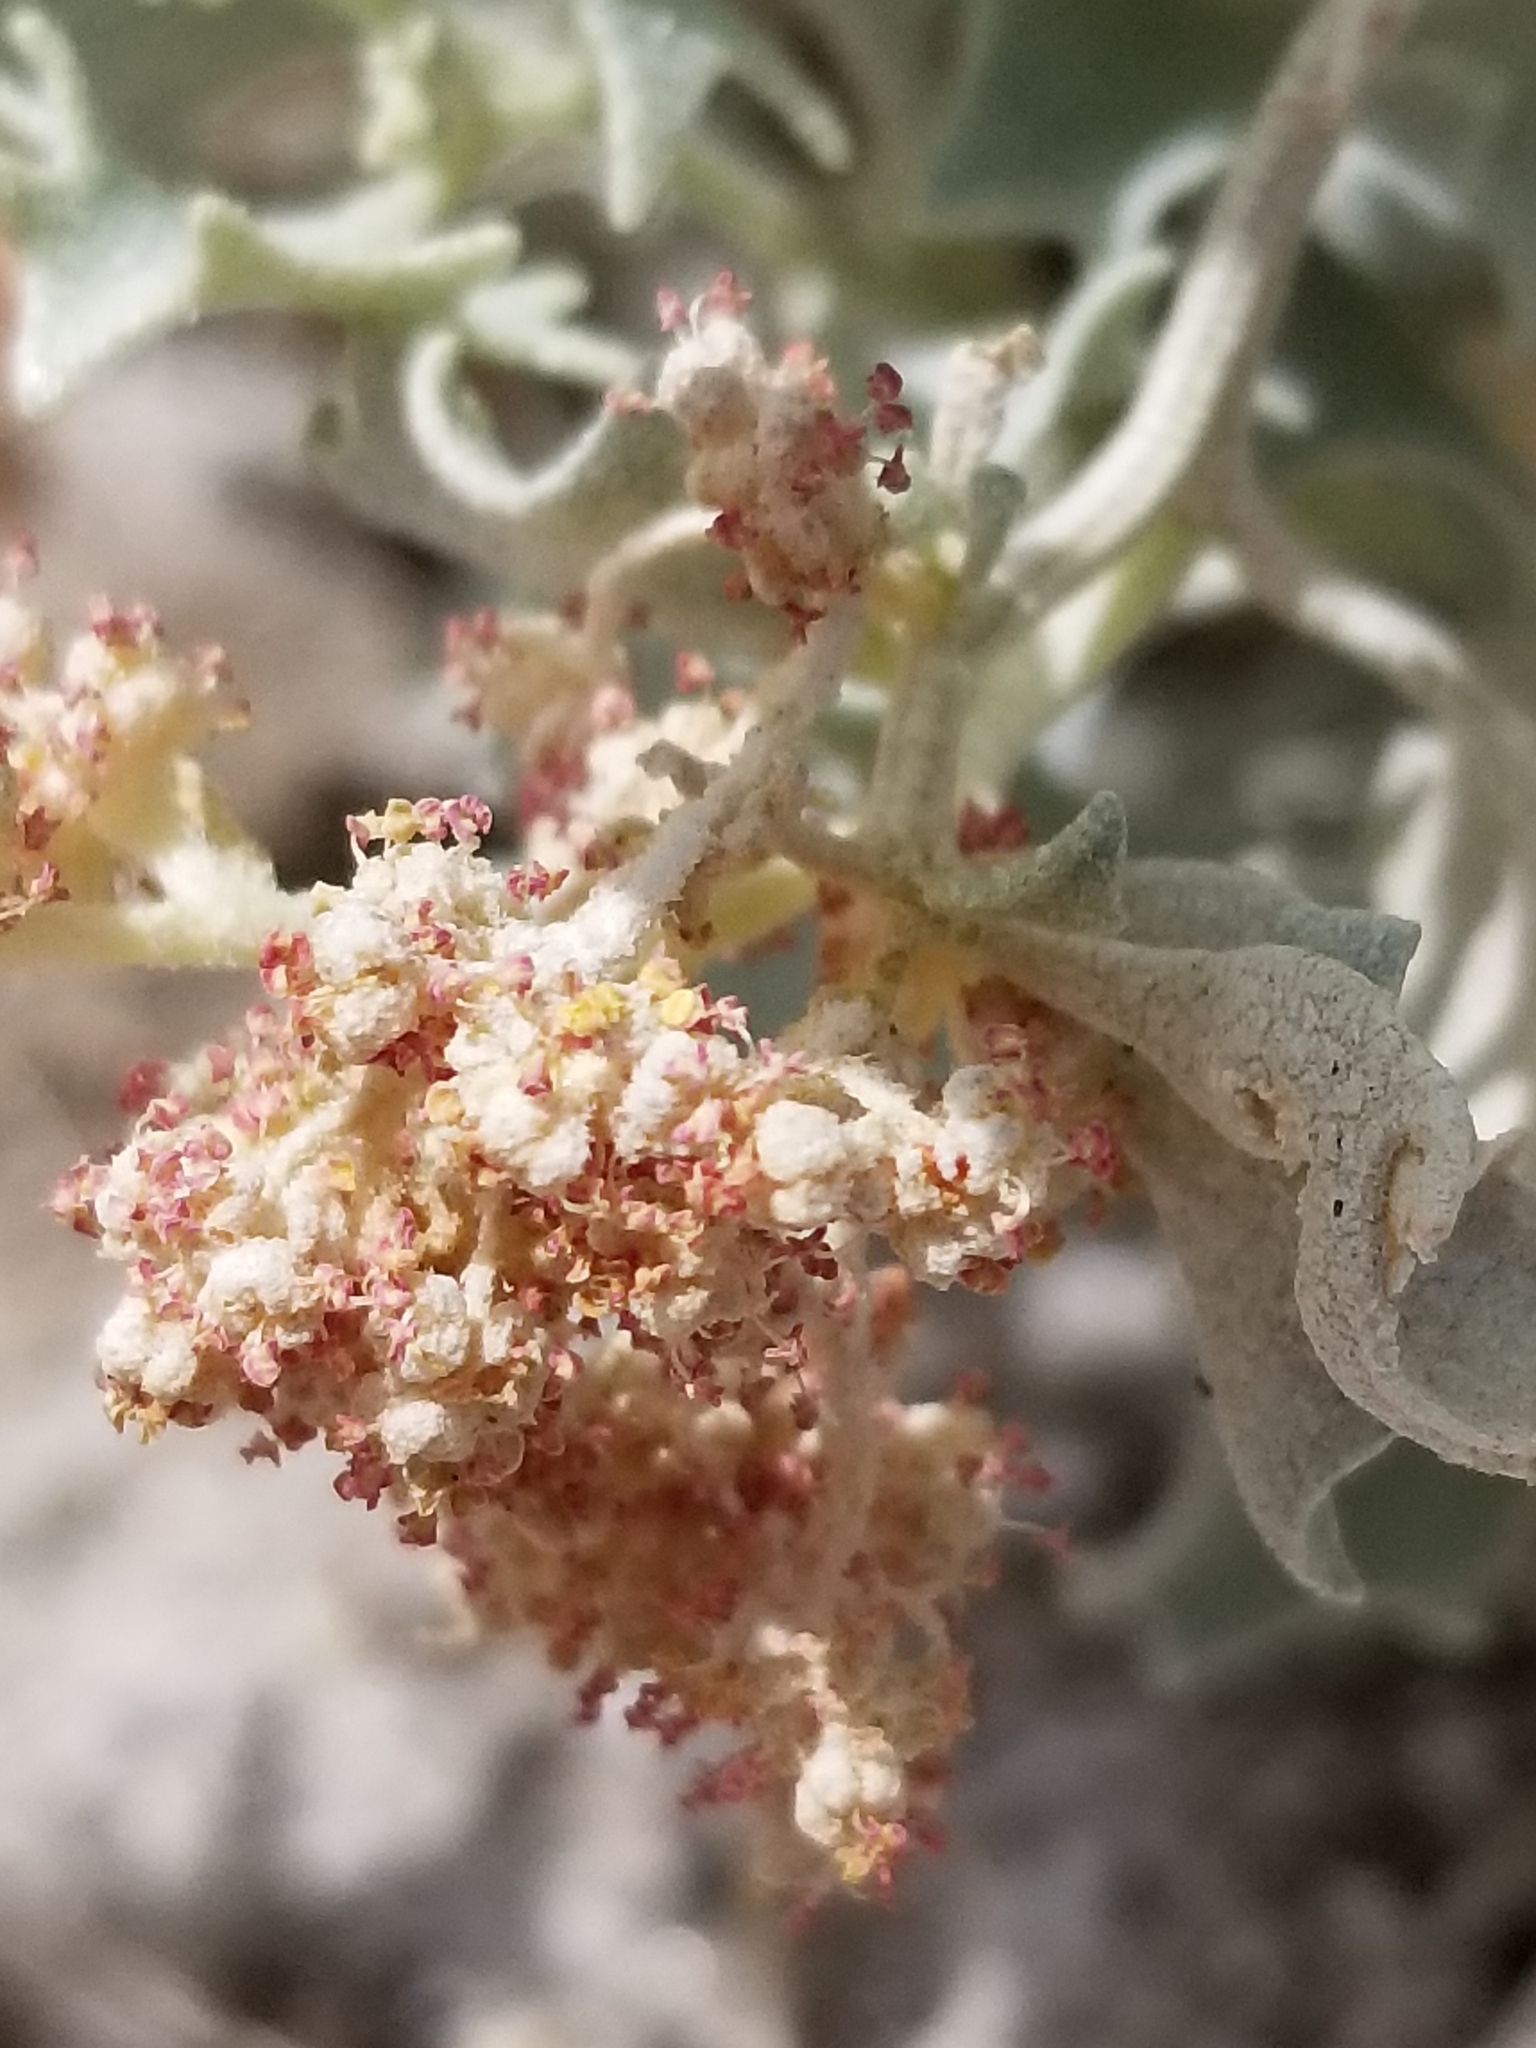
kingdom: Plantae
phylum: Tracheophyta
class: Magnoliopsida
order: Caryophyllales
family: Amaranthaceae
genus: Atriplex
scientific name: Atriplex hymenelytra
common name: Desert-holly
